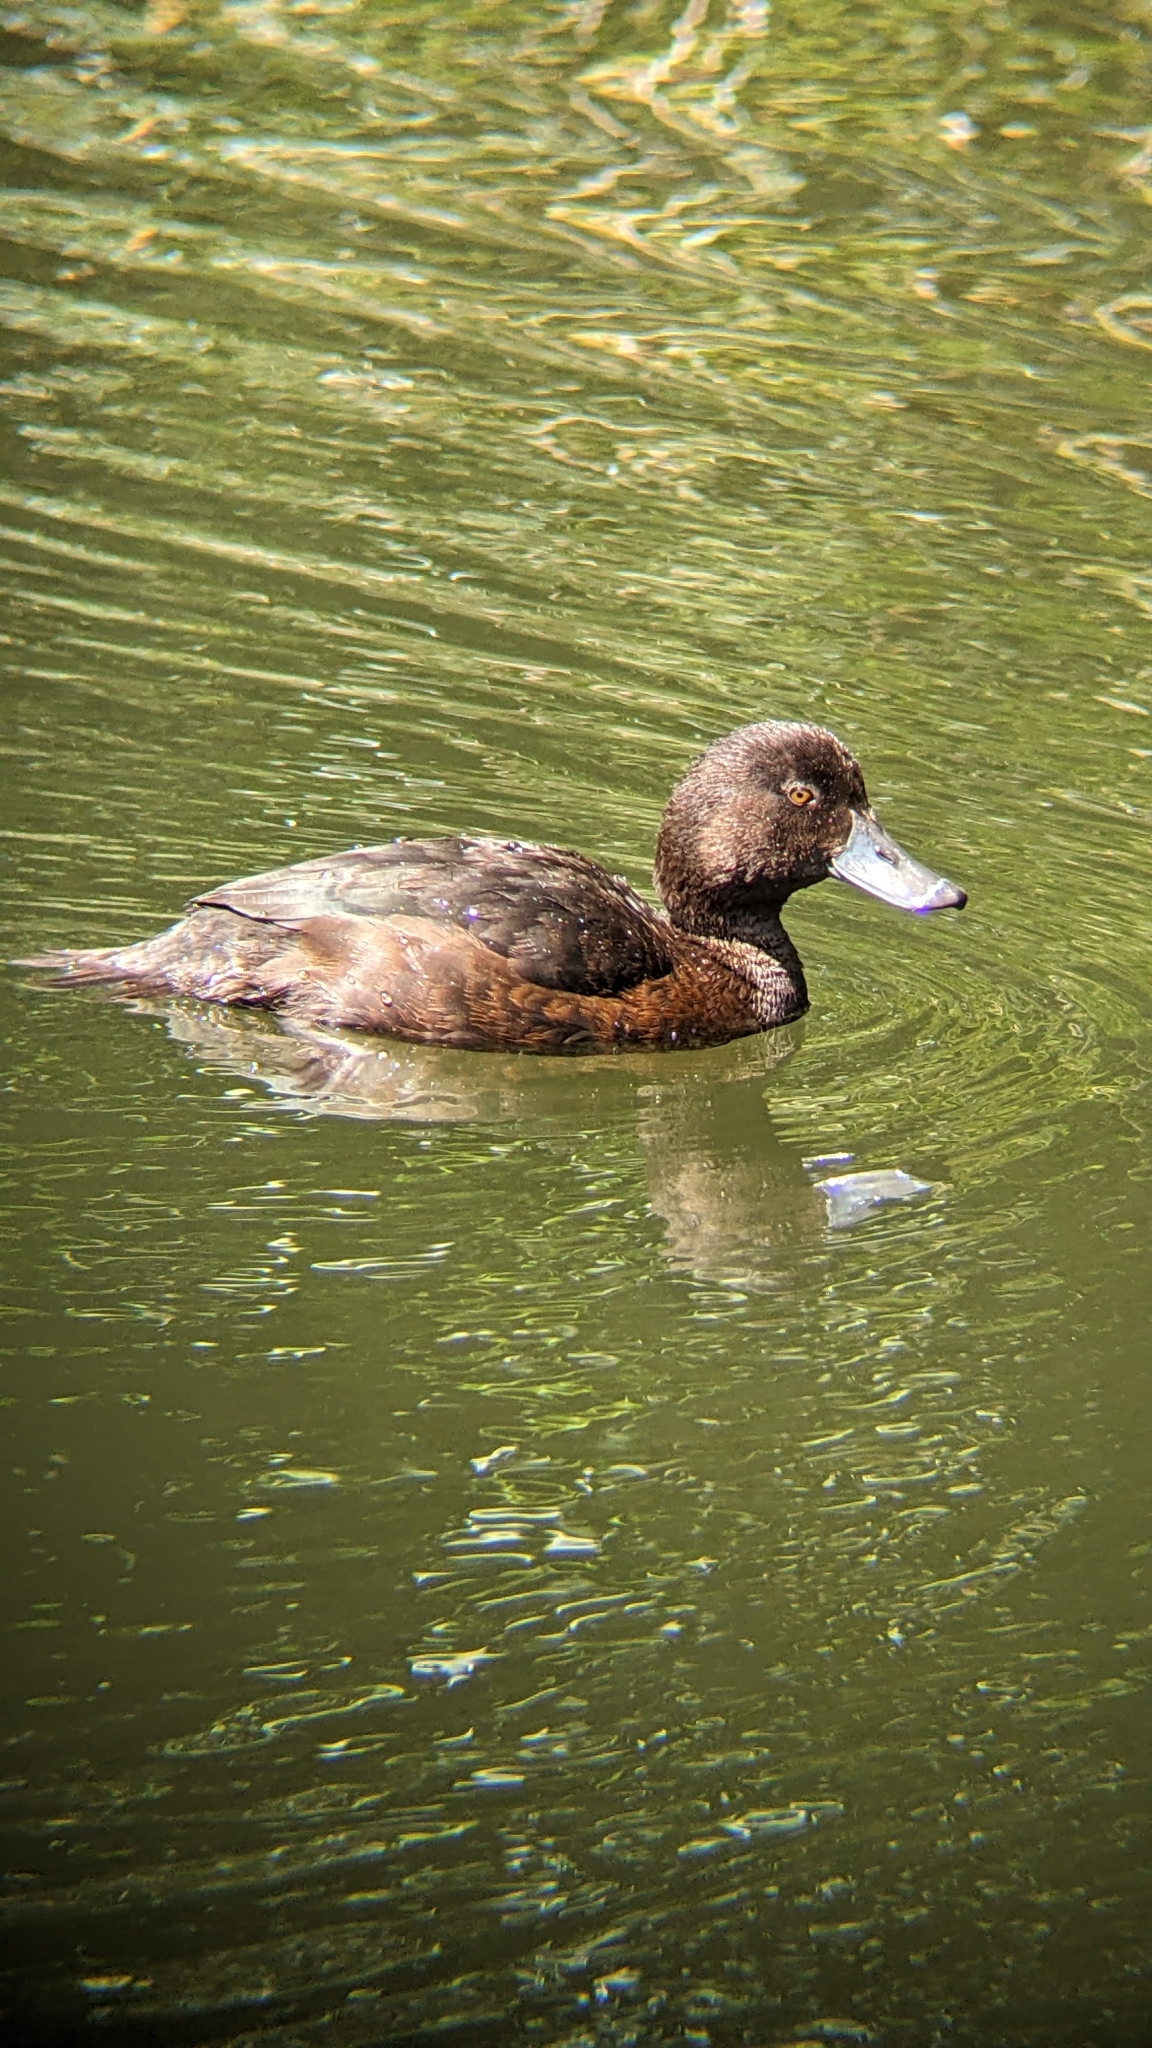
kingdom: Animalia
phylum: Chordata
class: Aves
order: Anseriformes
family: Anatidae
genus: Aythya
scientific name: Aythya novaeseelandiae
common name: New zealand scaup
